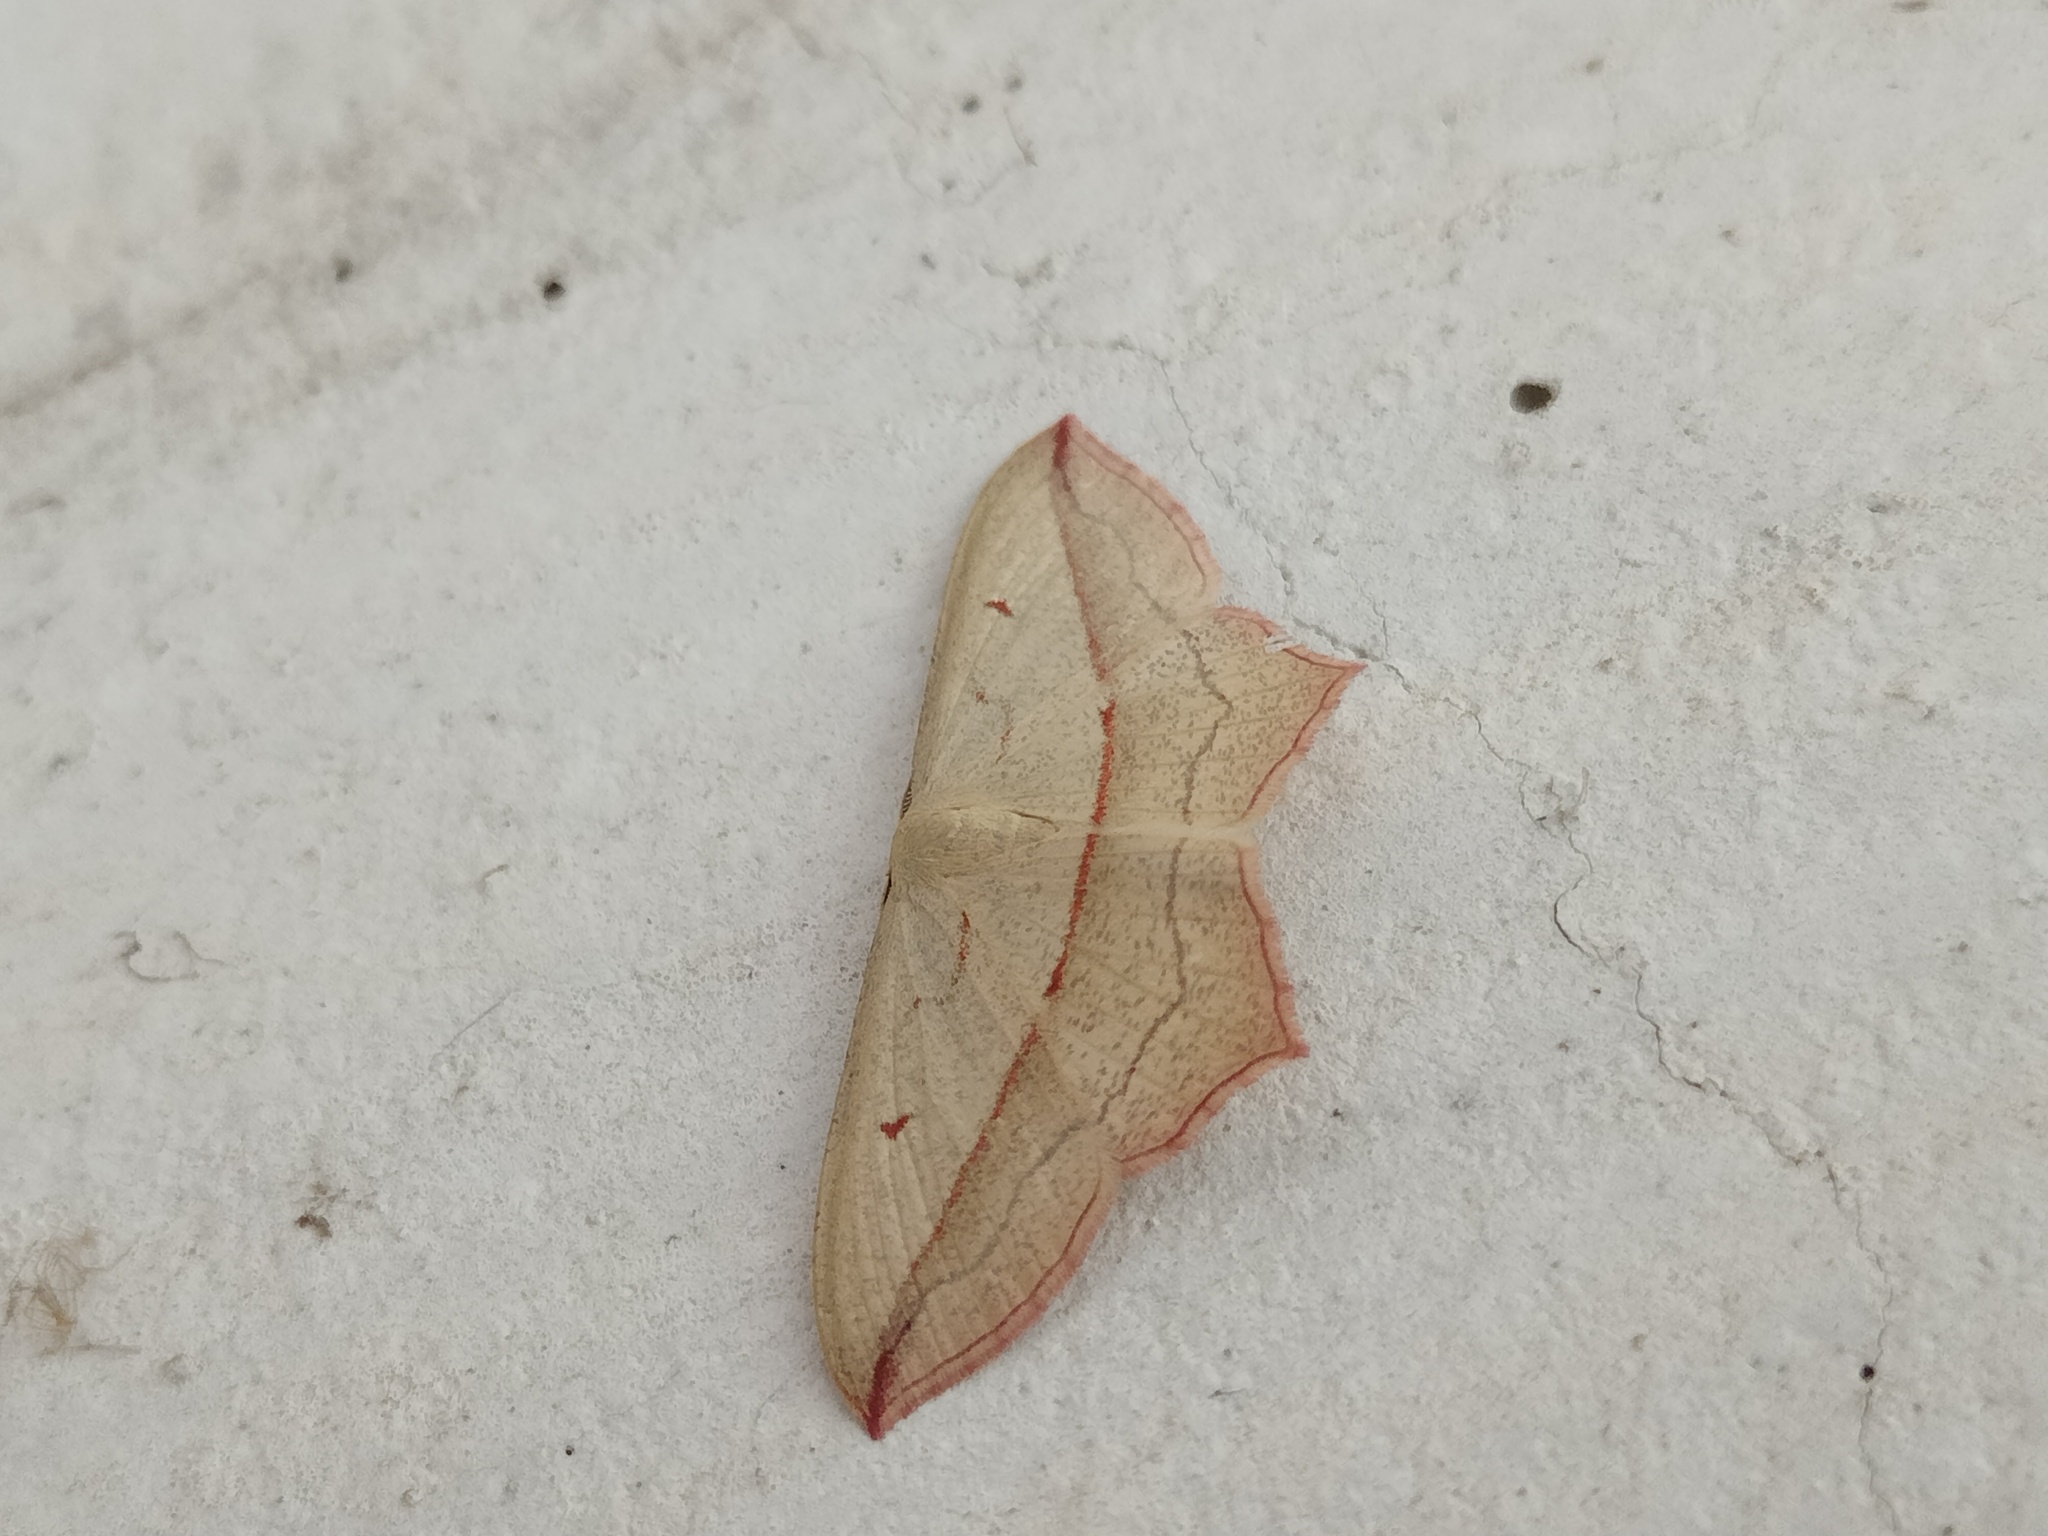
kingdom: Animalia
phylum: Arthropoda
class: Insecta
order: Lepidoptera
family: Geometridae
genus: Timandra
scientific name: Timandra comae
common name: Blood-vein
